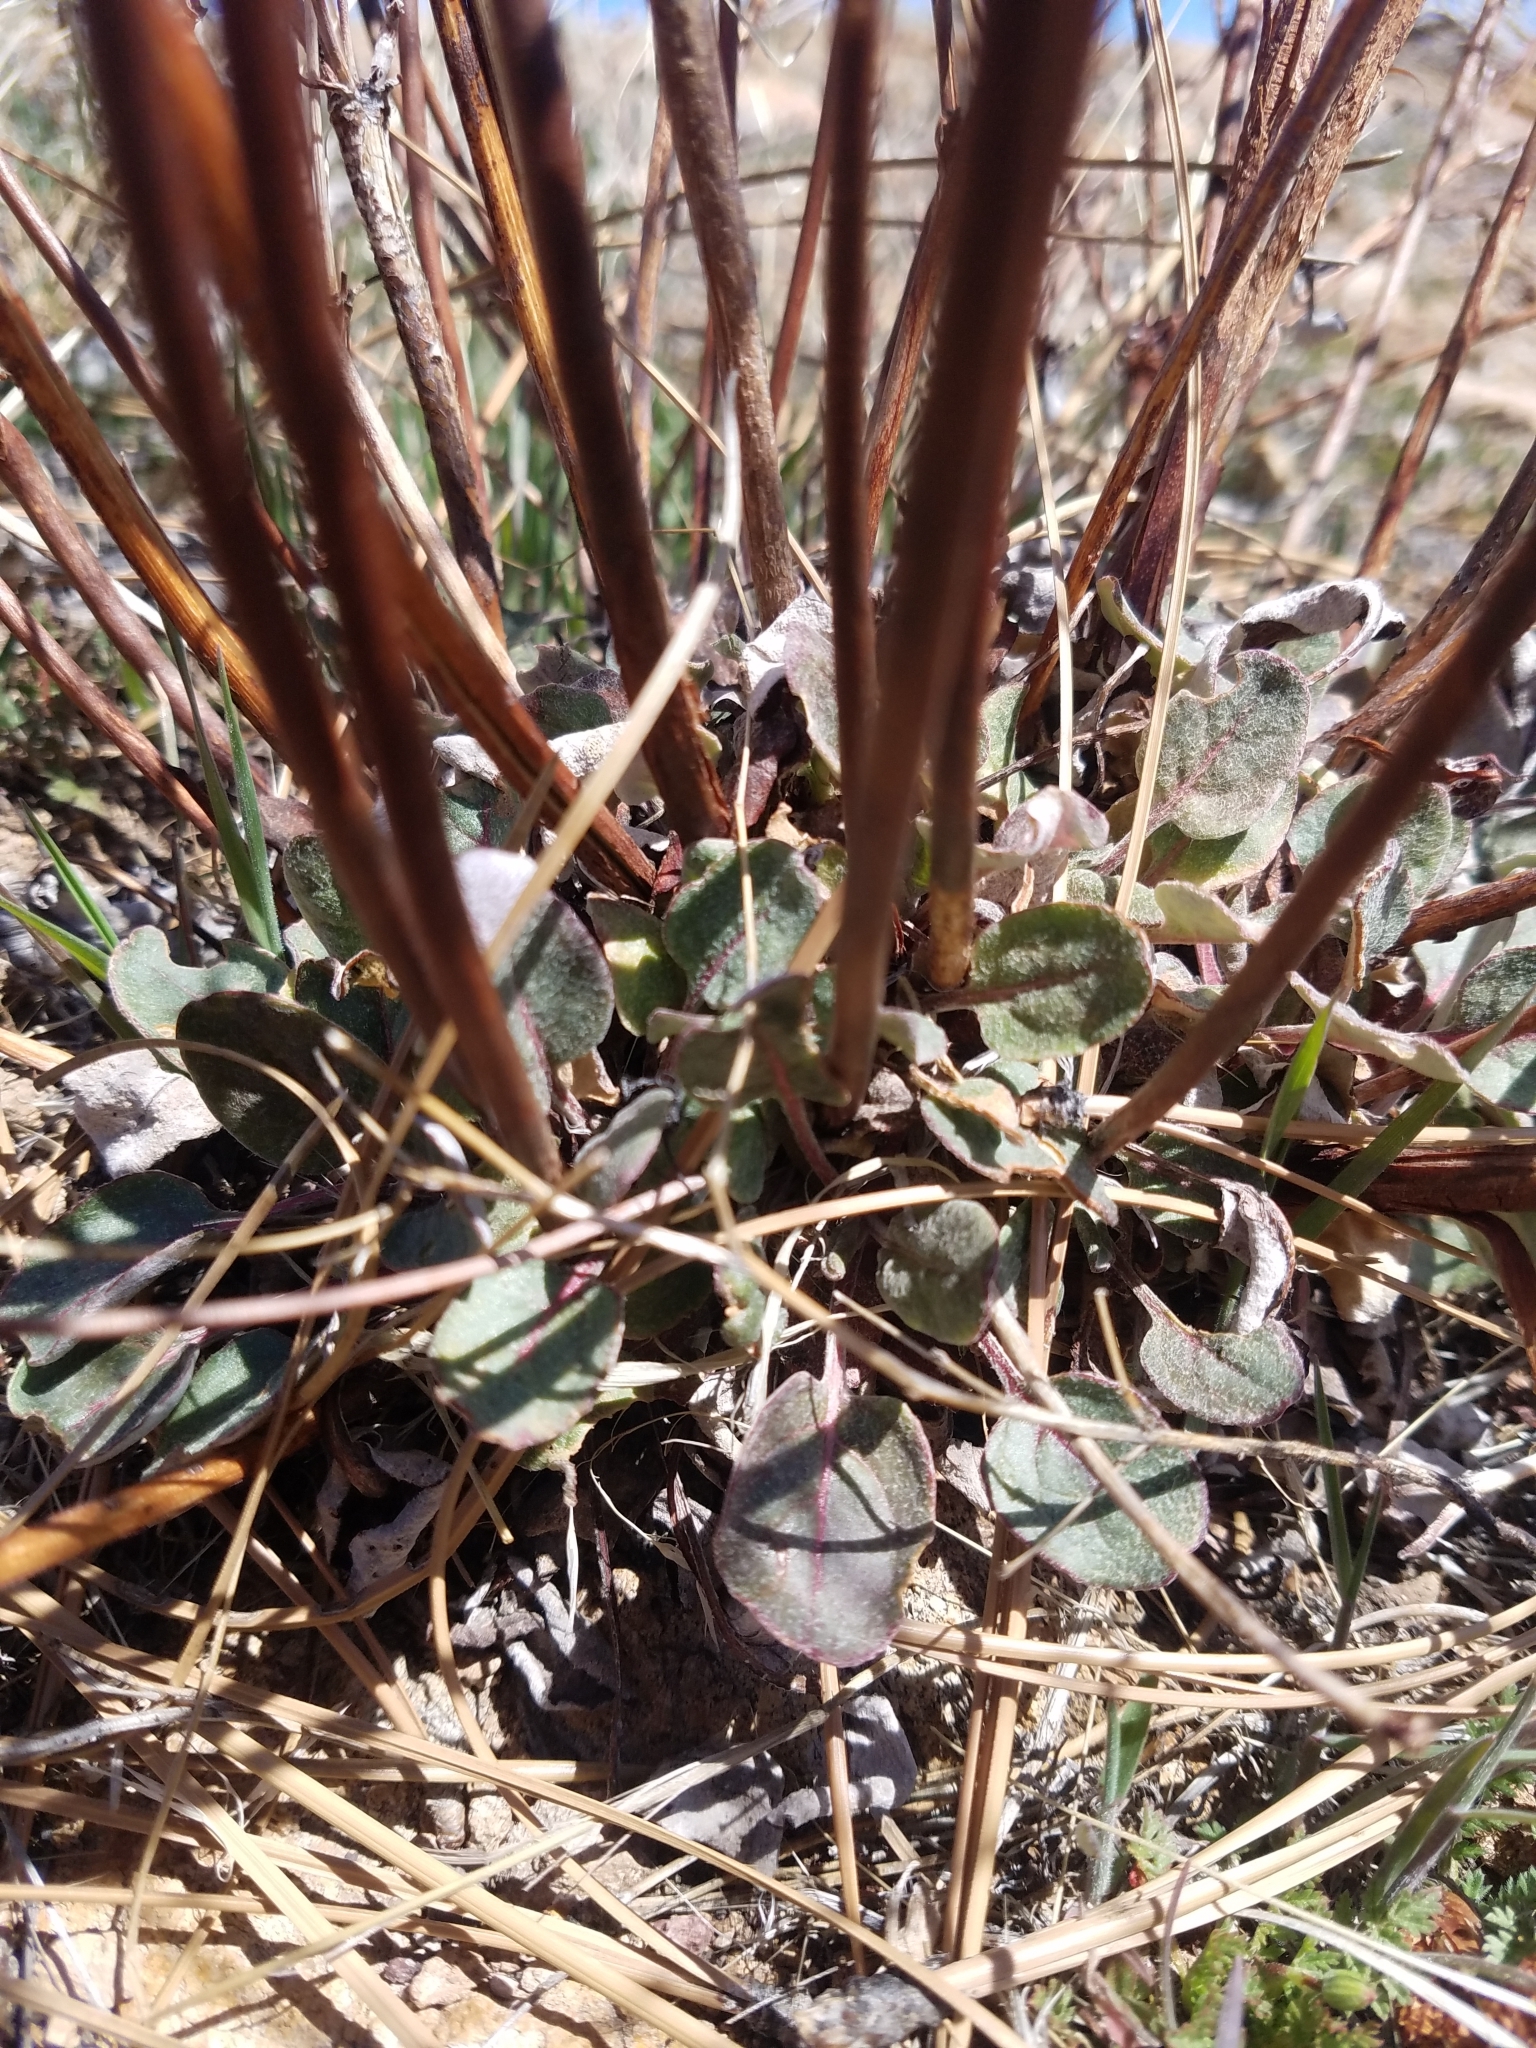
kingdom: Plantae
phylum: Tracheophyta
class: Magnoliopsida
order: Caryophyllales
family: Polygonaceae
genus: Eriogonum
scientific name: Eriogonum nudum
